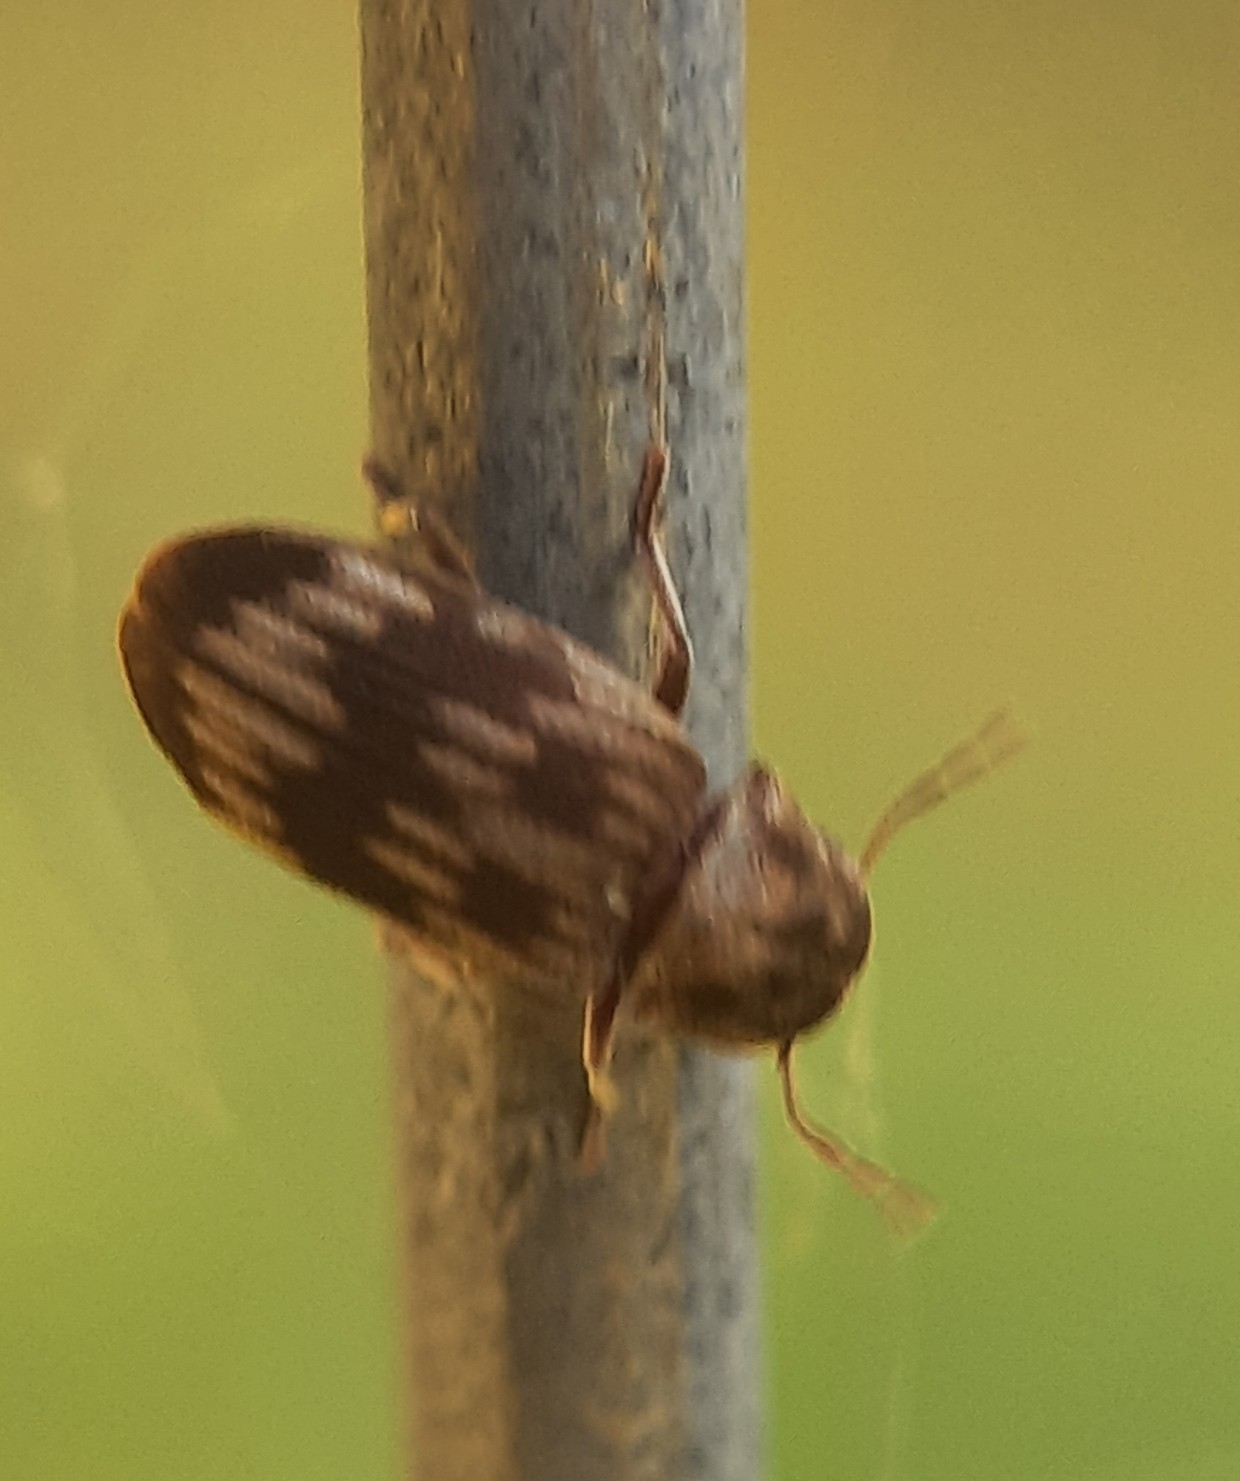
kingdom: Animalia
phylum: Arthropoda
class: Insecta
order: Coleoptera
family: Anobiidae
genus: Hadrobregmus
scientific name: Hadrobregmus notatus
